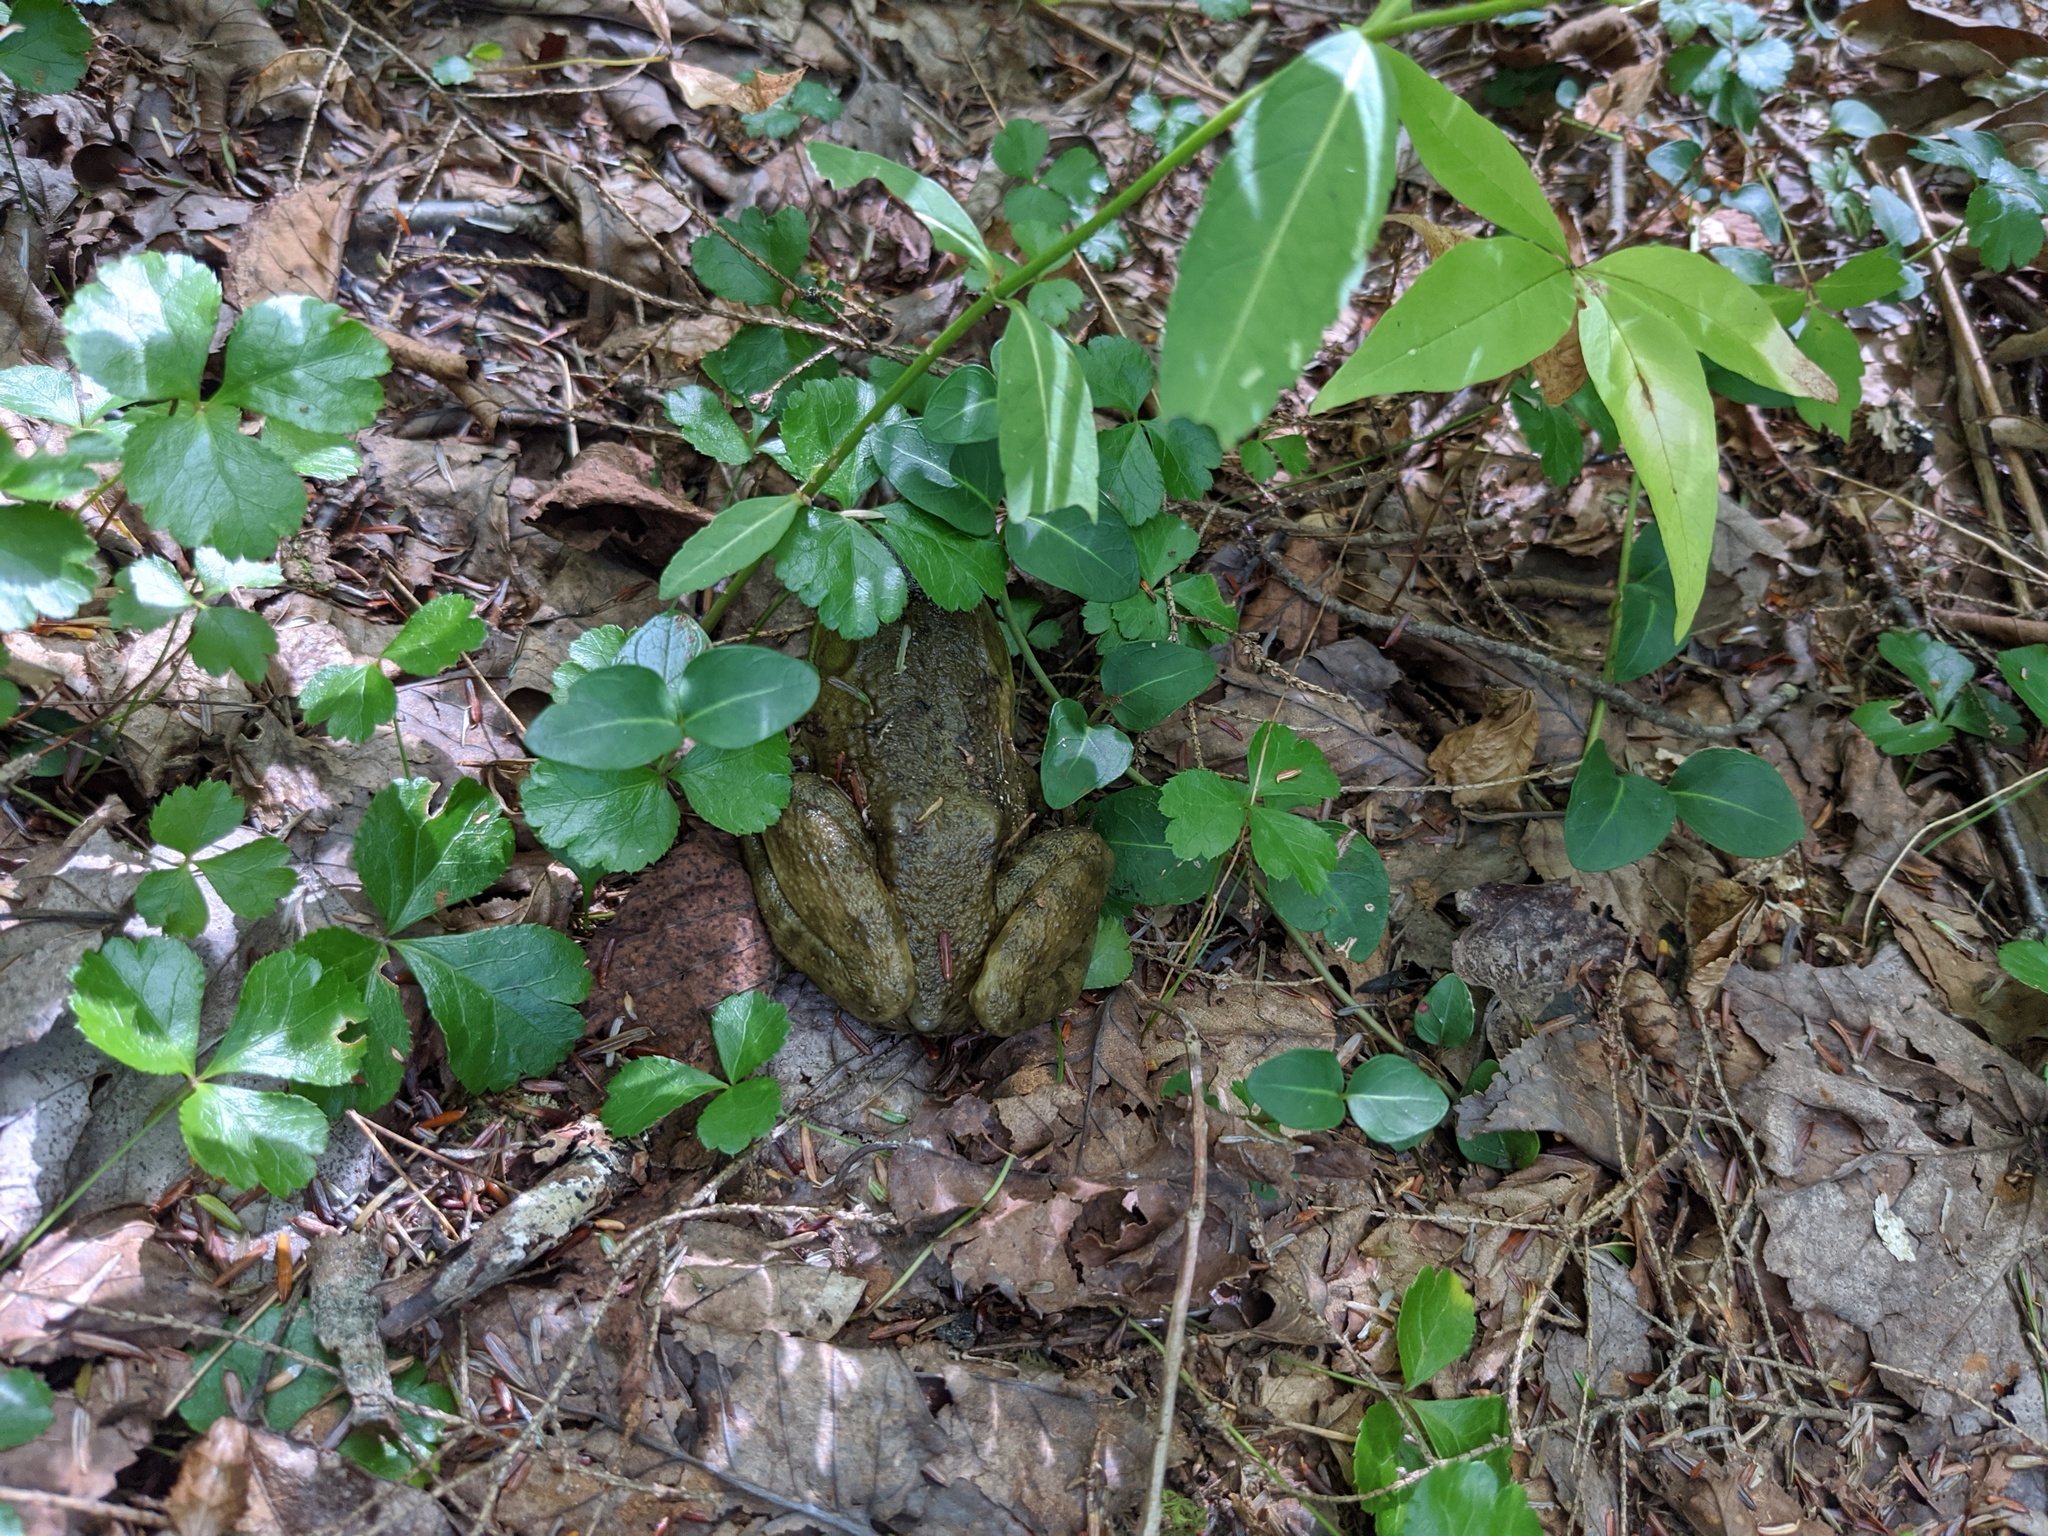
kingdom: Plantae
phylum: Tracheophyta
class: Magnoliopsida
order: Ranunculales
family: Ranunculaceae
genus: Coptis
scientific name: Coptis trifolia
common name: Canker-root
